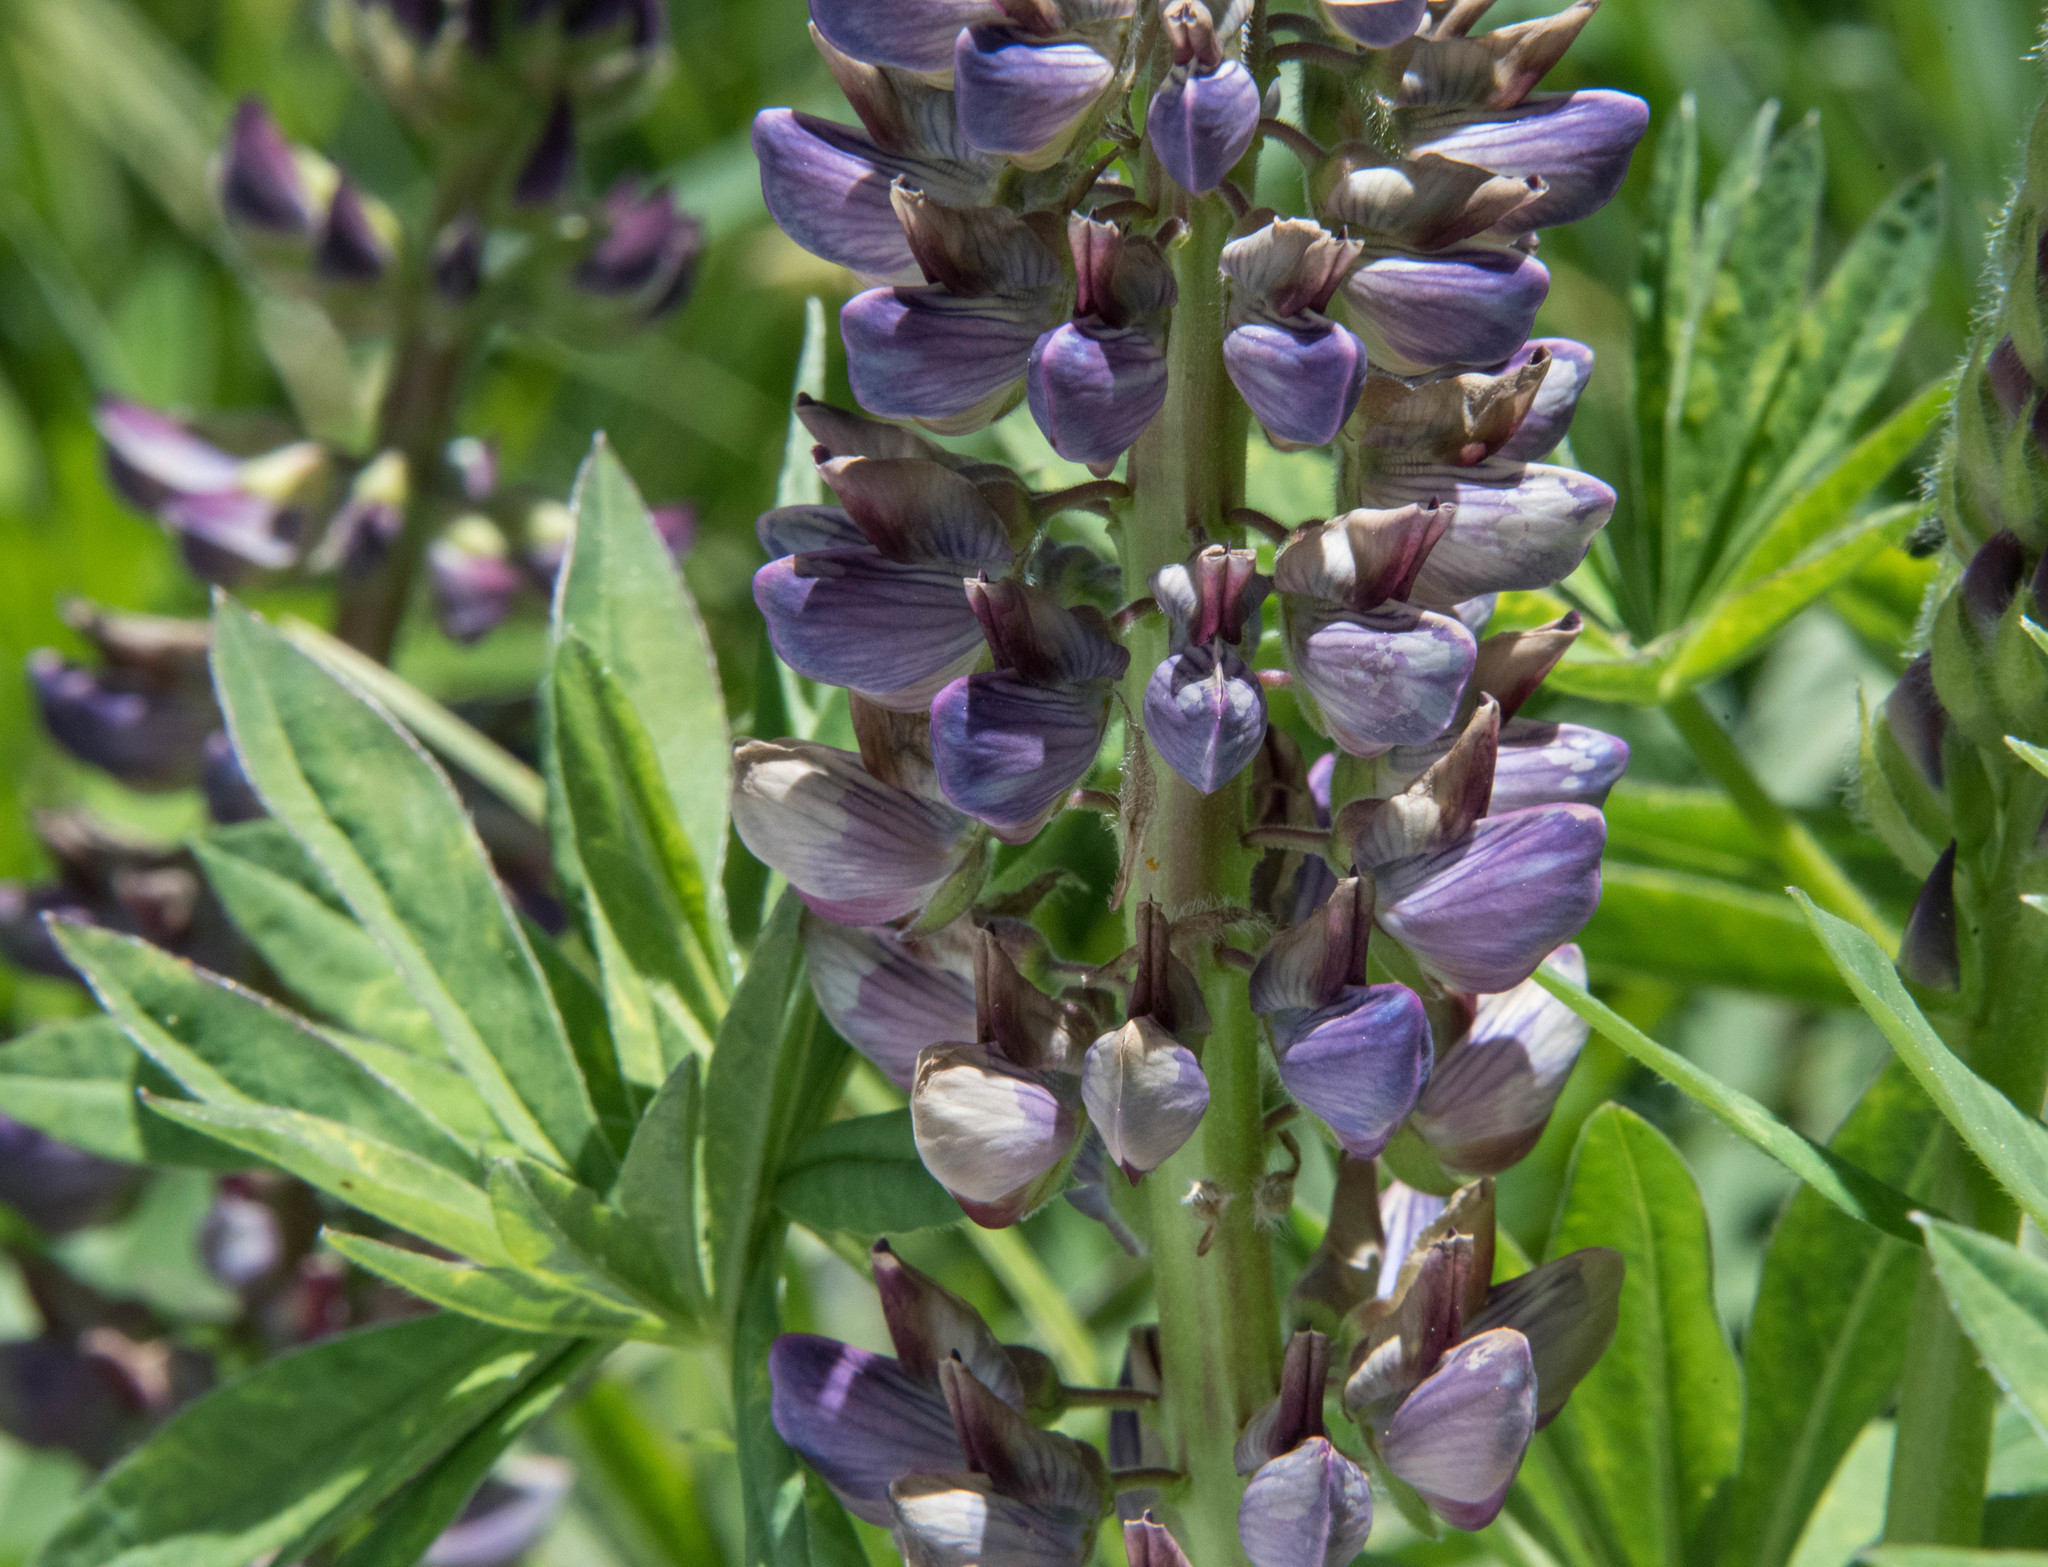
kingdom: Plantae
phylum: Tracheophyta
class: Magnoliopsida
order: Fabales
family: Fabaceae
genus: Lupinus
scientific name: Lupinus polyphyllus
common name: Garden lupin
